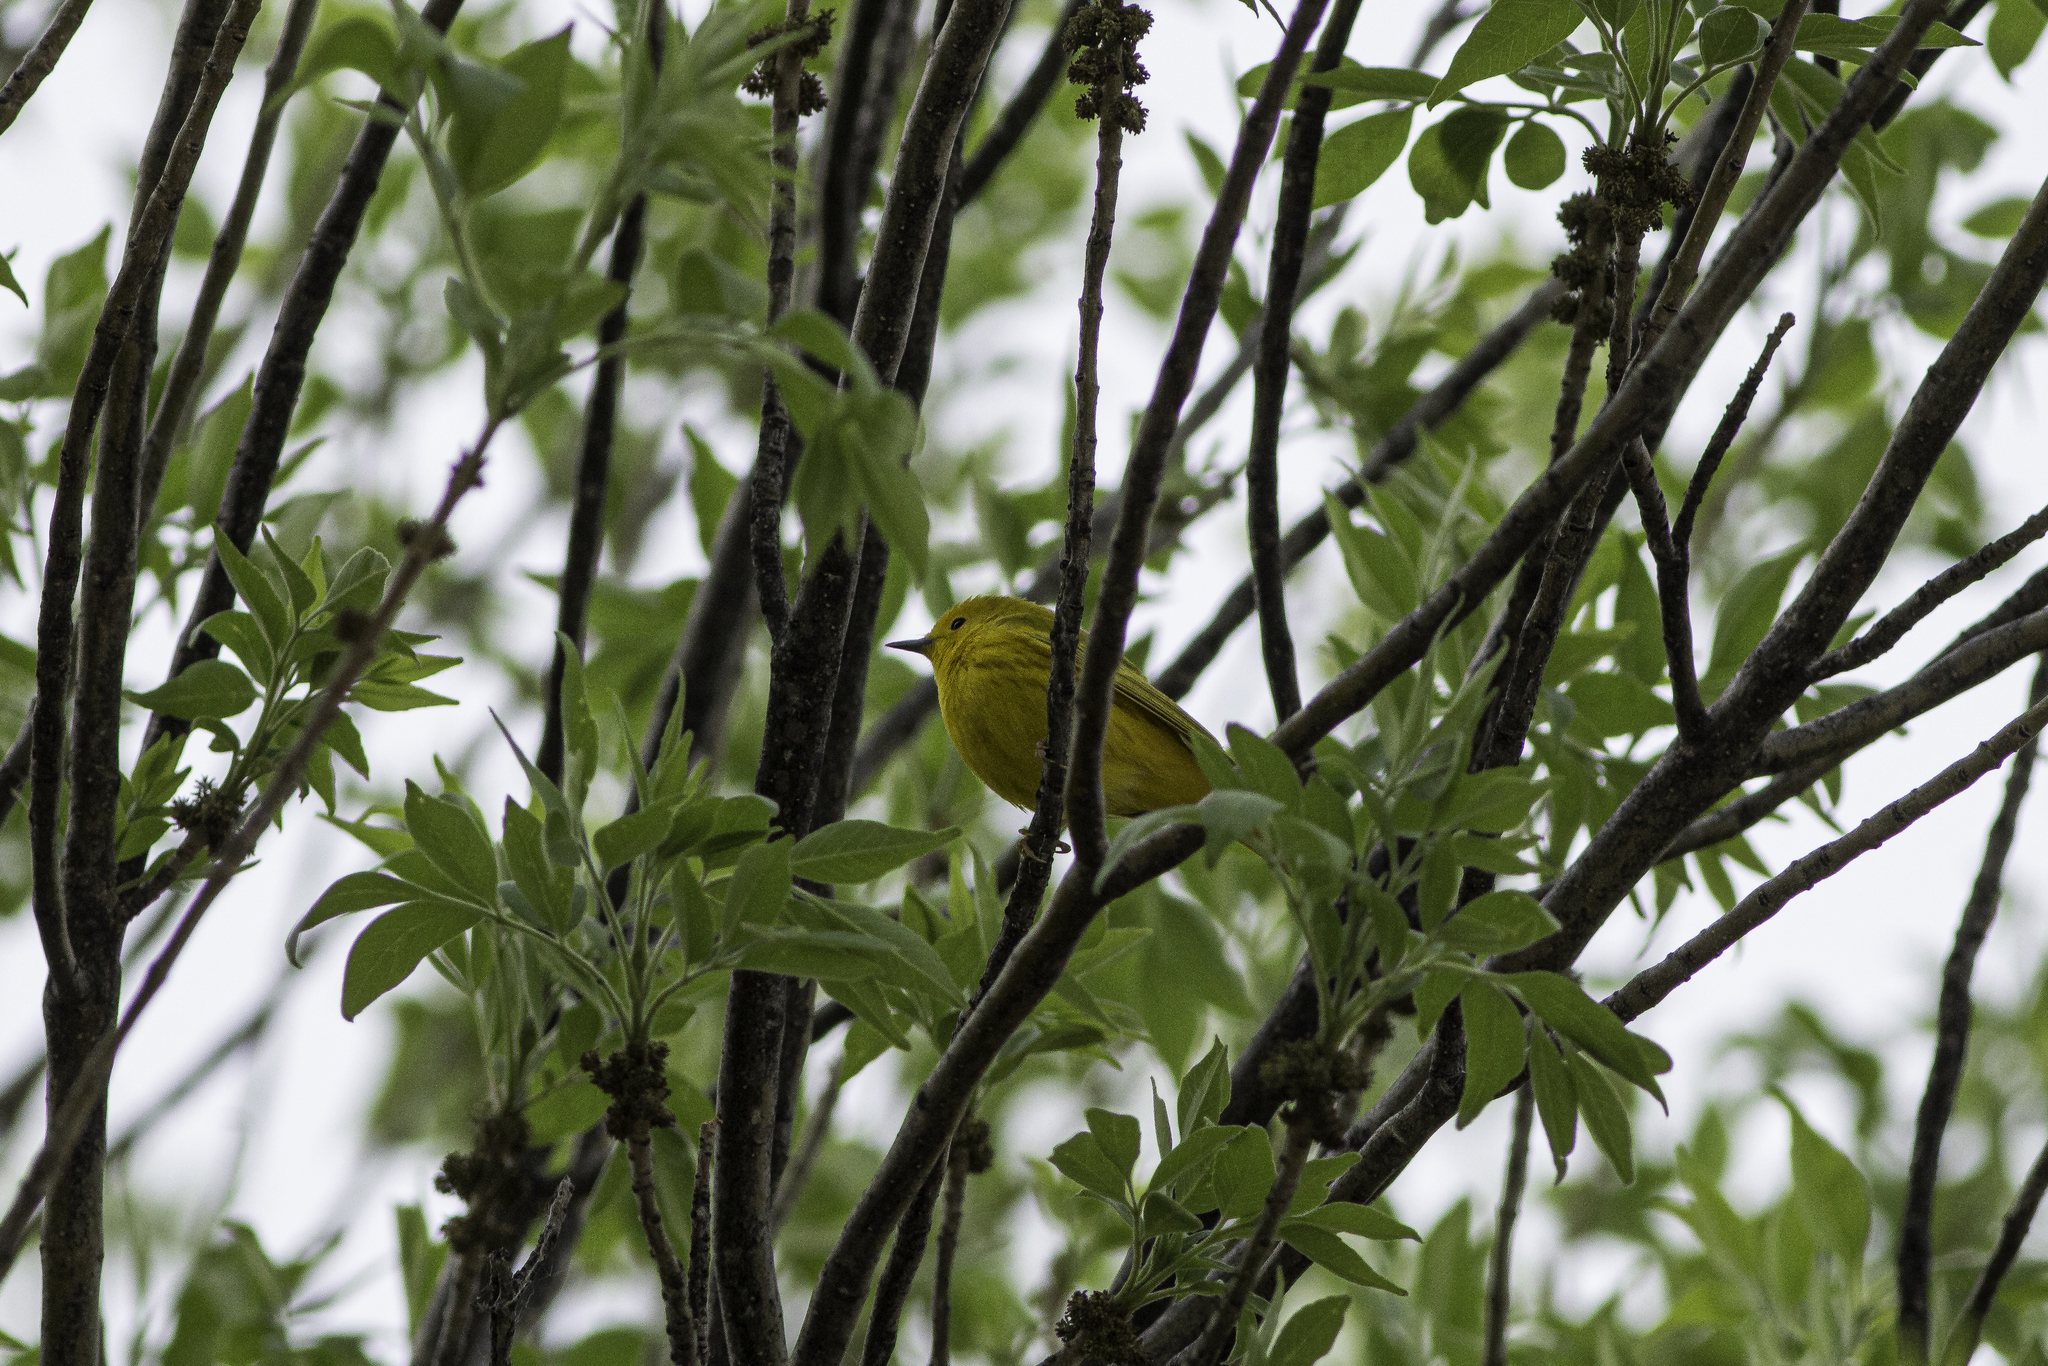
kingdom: Animalia
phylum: Chordata
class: Aves
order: Passeriformes
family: Parulidae
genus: Setophaga
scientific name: Setophaga petechia
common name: Yellow warbler
